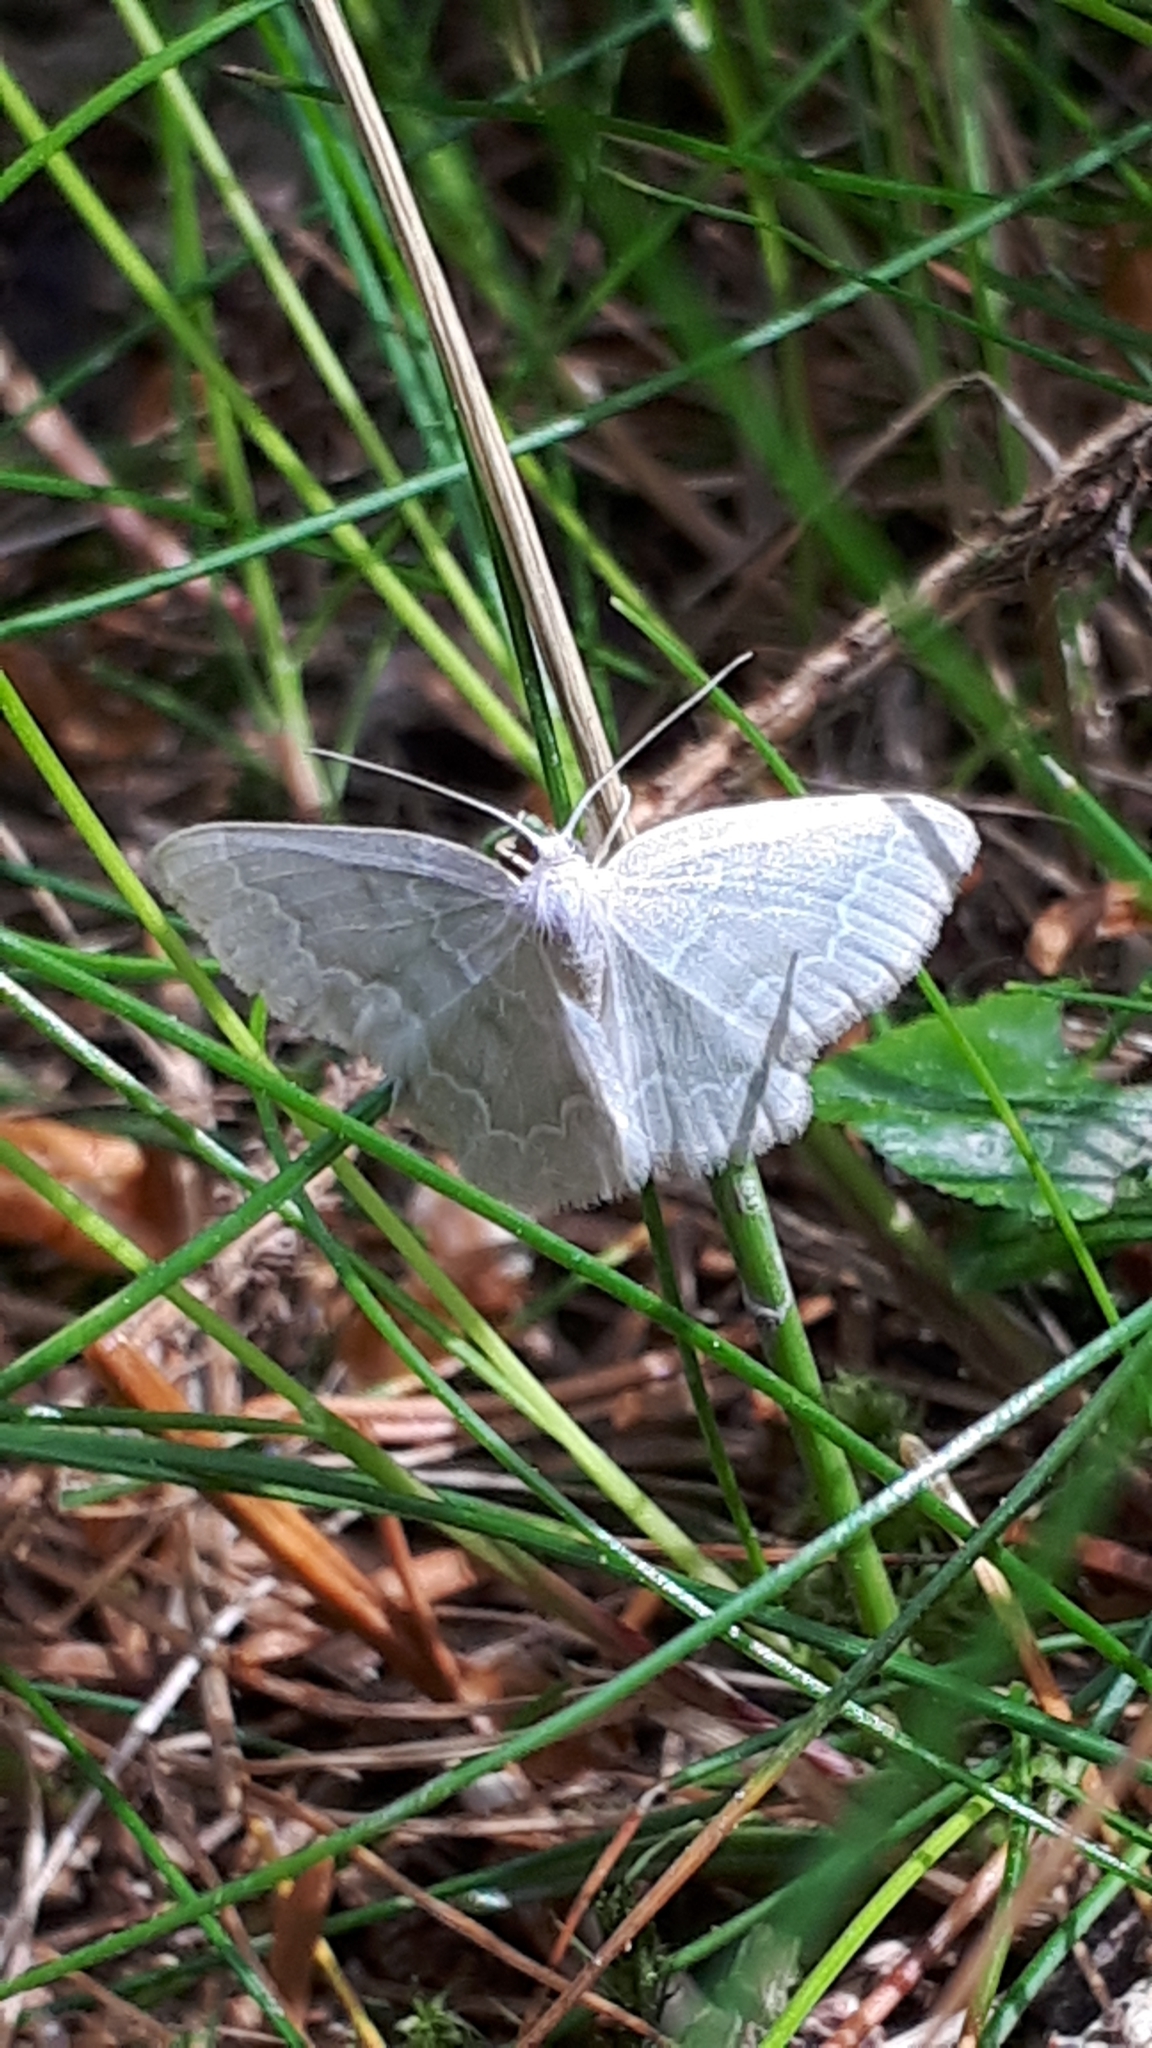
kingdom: Animalia
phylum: Arthropoda
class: Insecta
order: Lepidoptera
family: Geometridae
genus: Jodis
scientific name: Jodis putata
